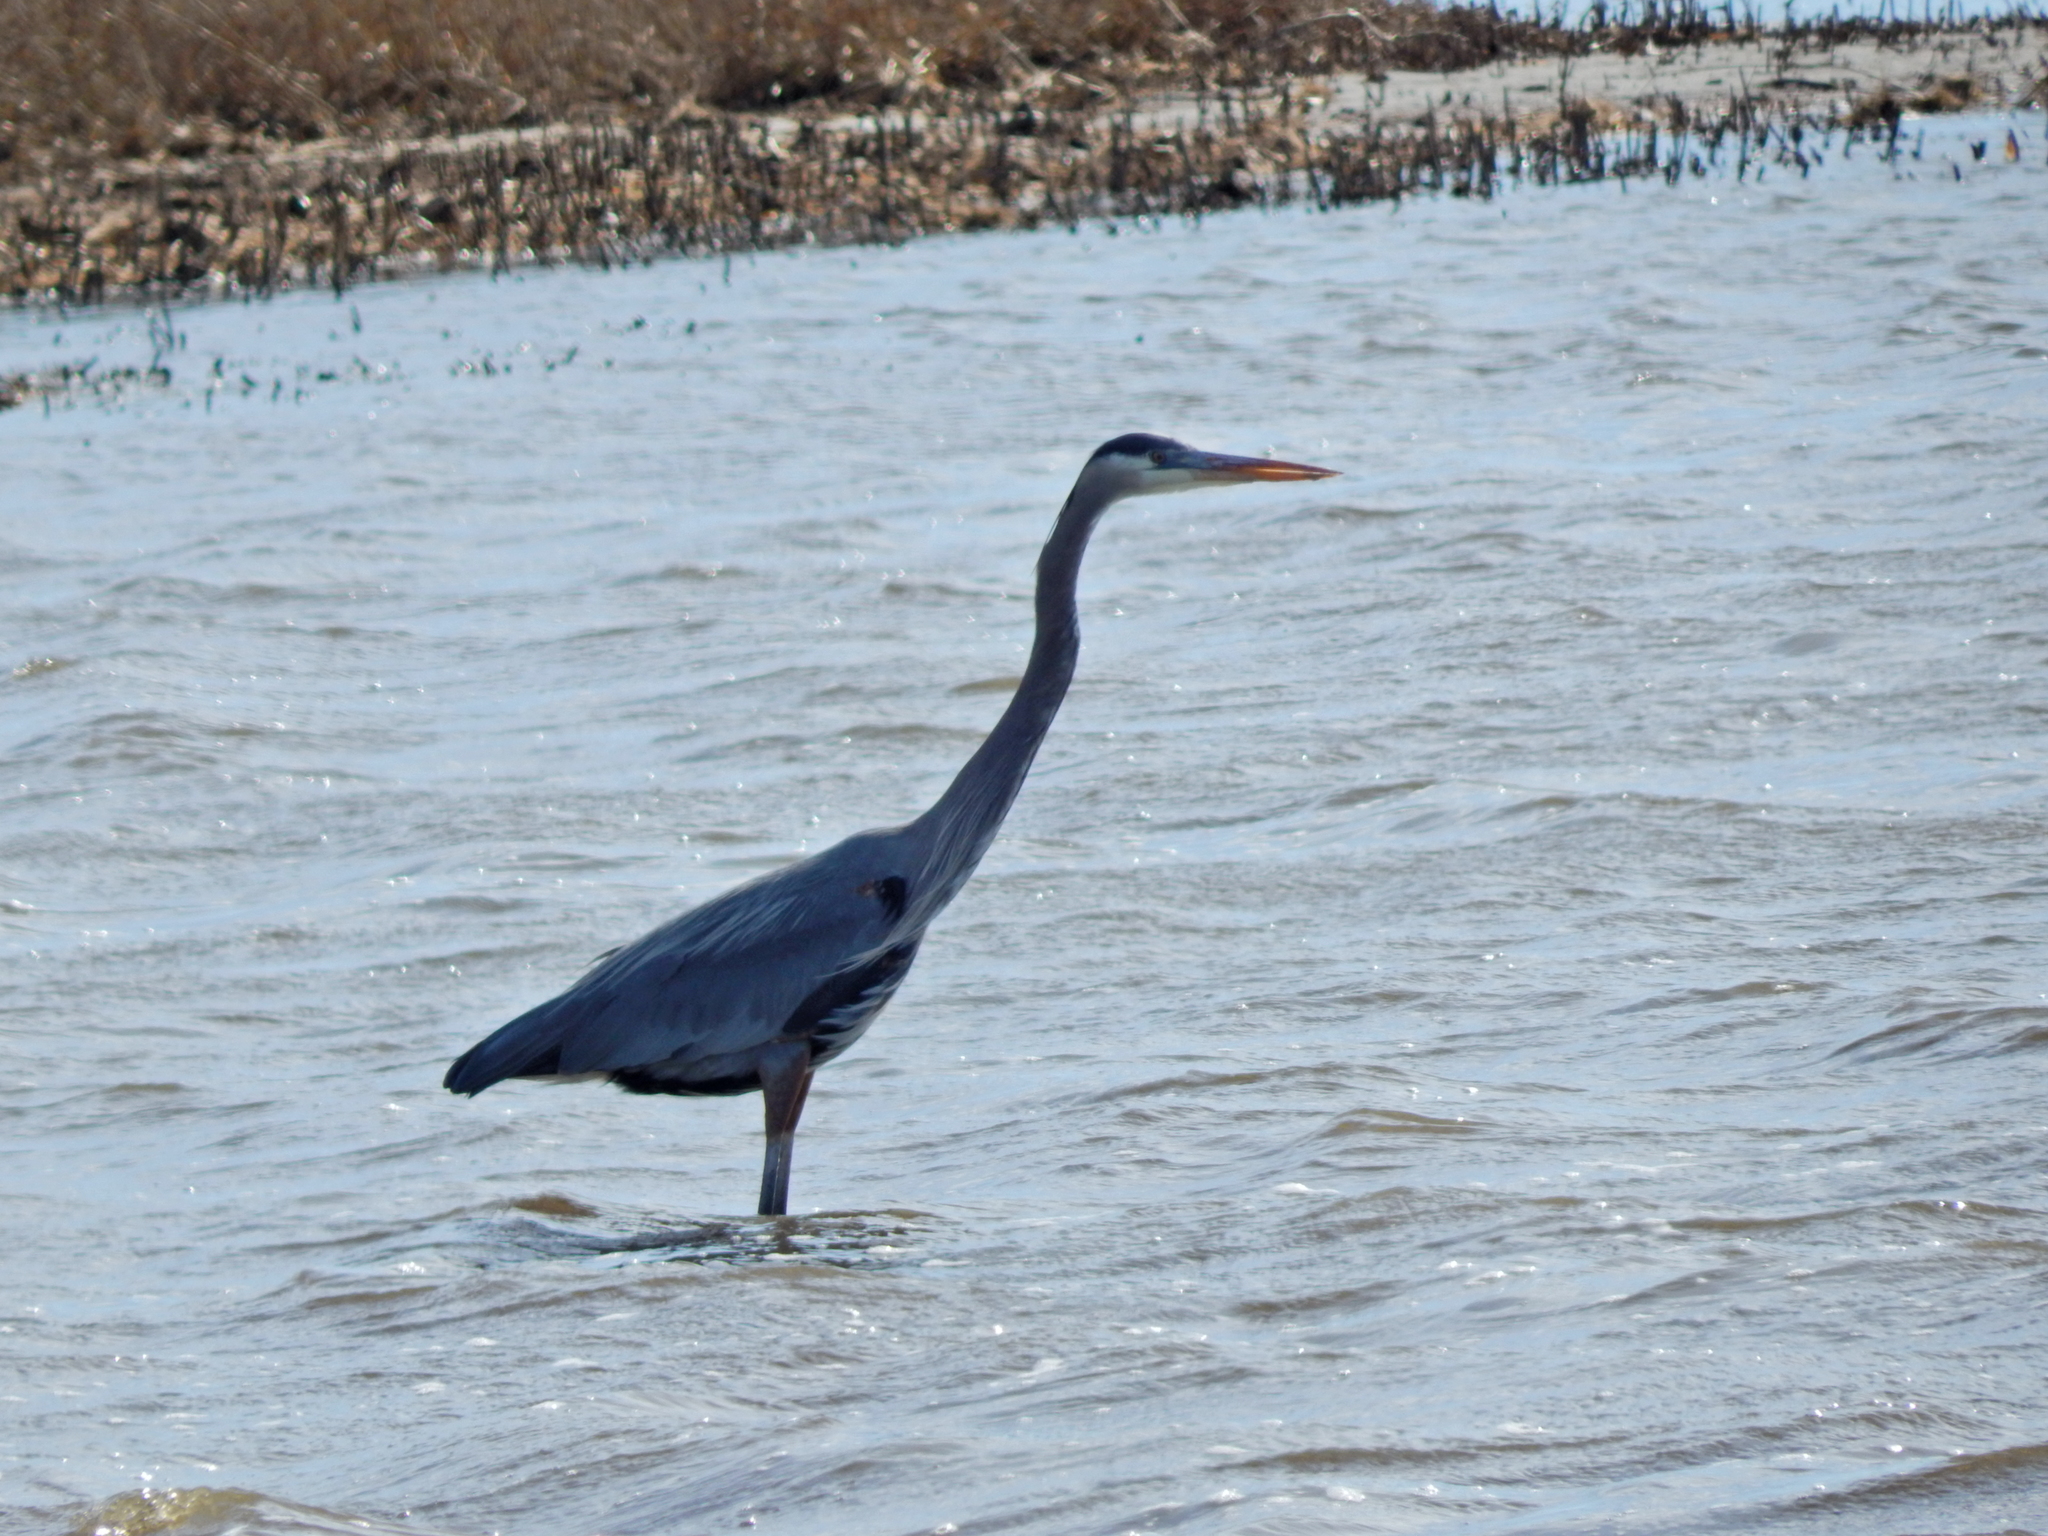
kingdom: Animalia
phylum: Chordata
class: Aves
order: Pelecaniformes
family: Ardeidae
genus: Ardea
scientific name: Ardea herodias
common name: Great blue heron
